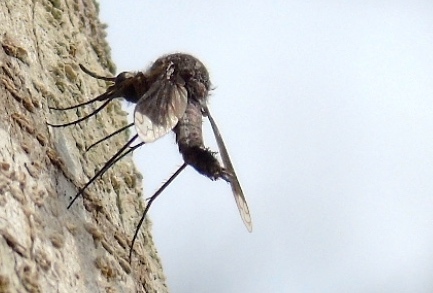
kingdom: Animalia
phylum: Arthropoda
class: Insecta
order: Diptera
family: Bombyliidae
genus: Lepidophora
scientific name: Lepidophora vetusta
